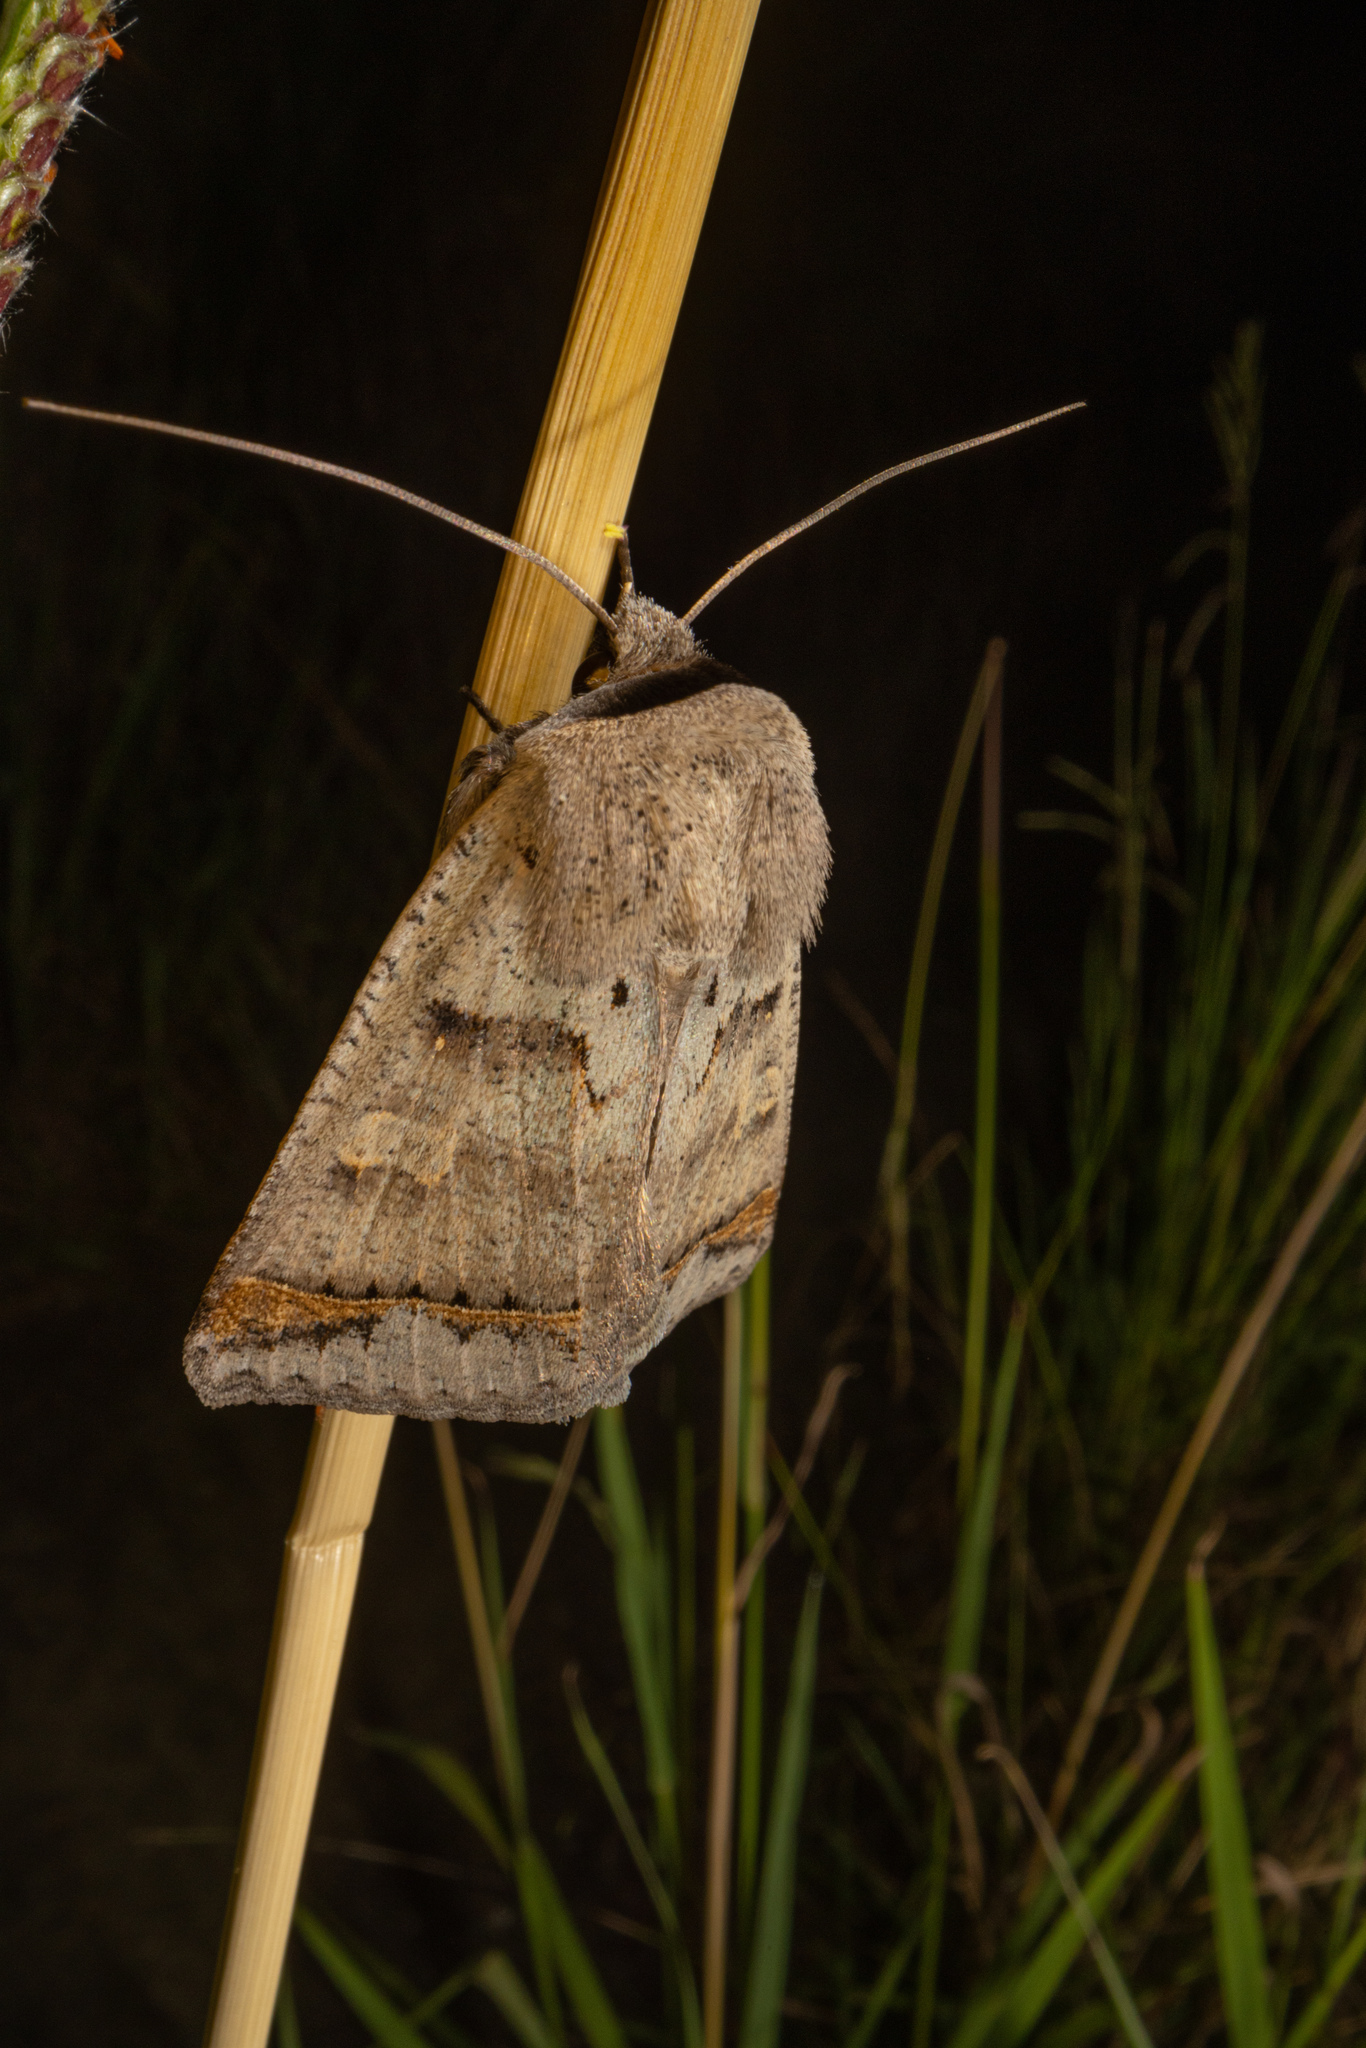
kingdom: Animalia
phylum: Arthropoda
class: Insecta
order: Lepidoptera
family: Erebidae
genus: Pantydia
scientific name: Pantydia sparsa
